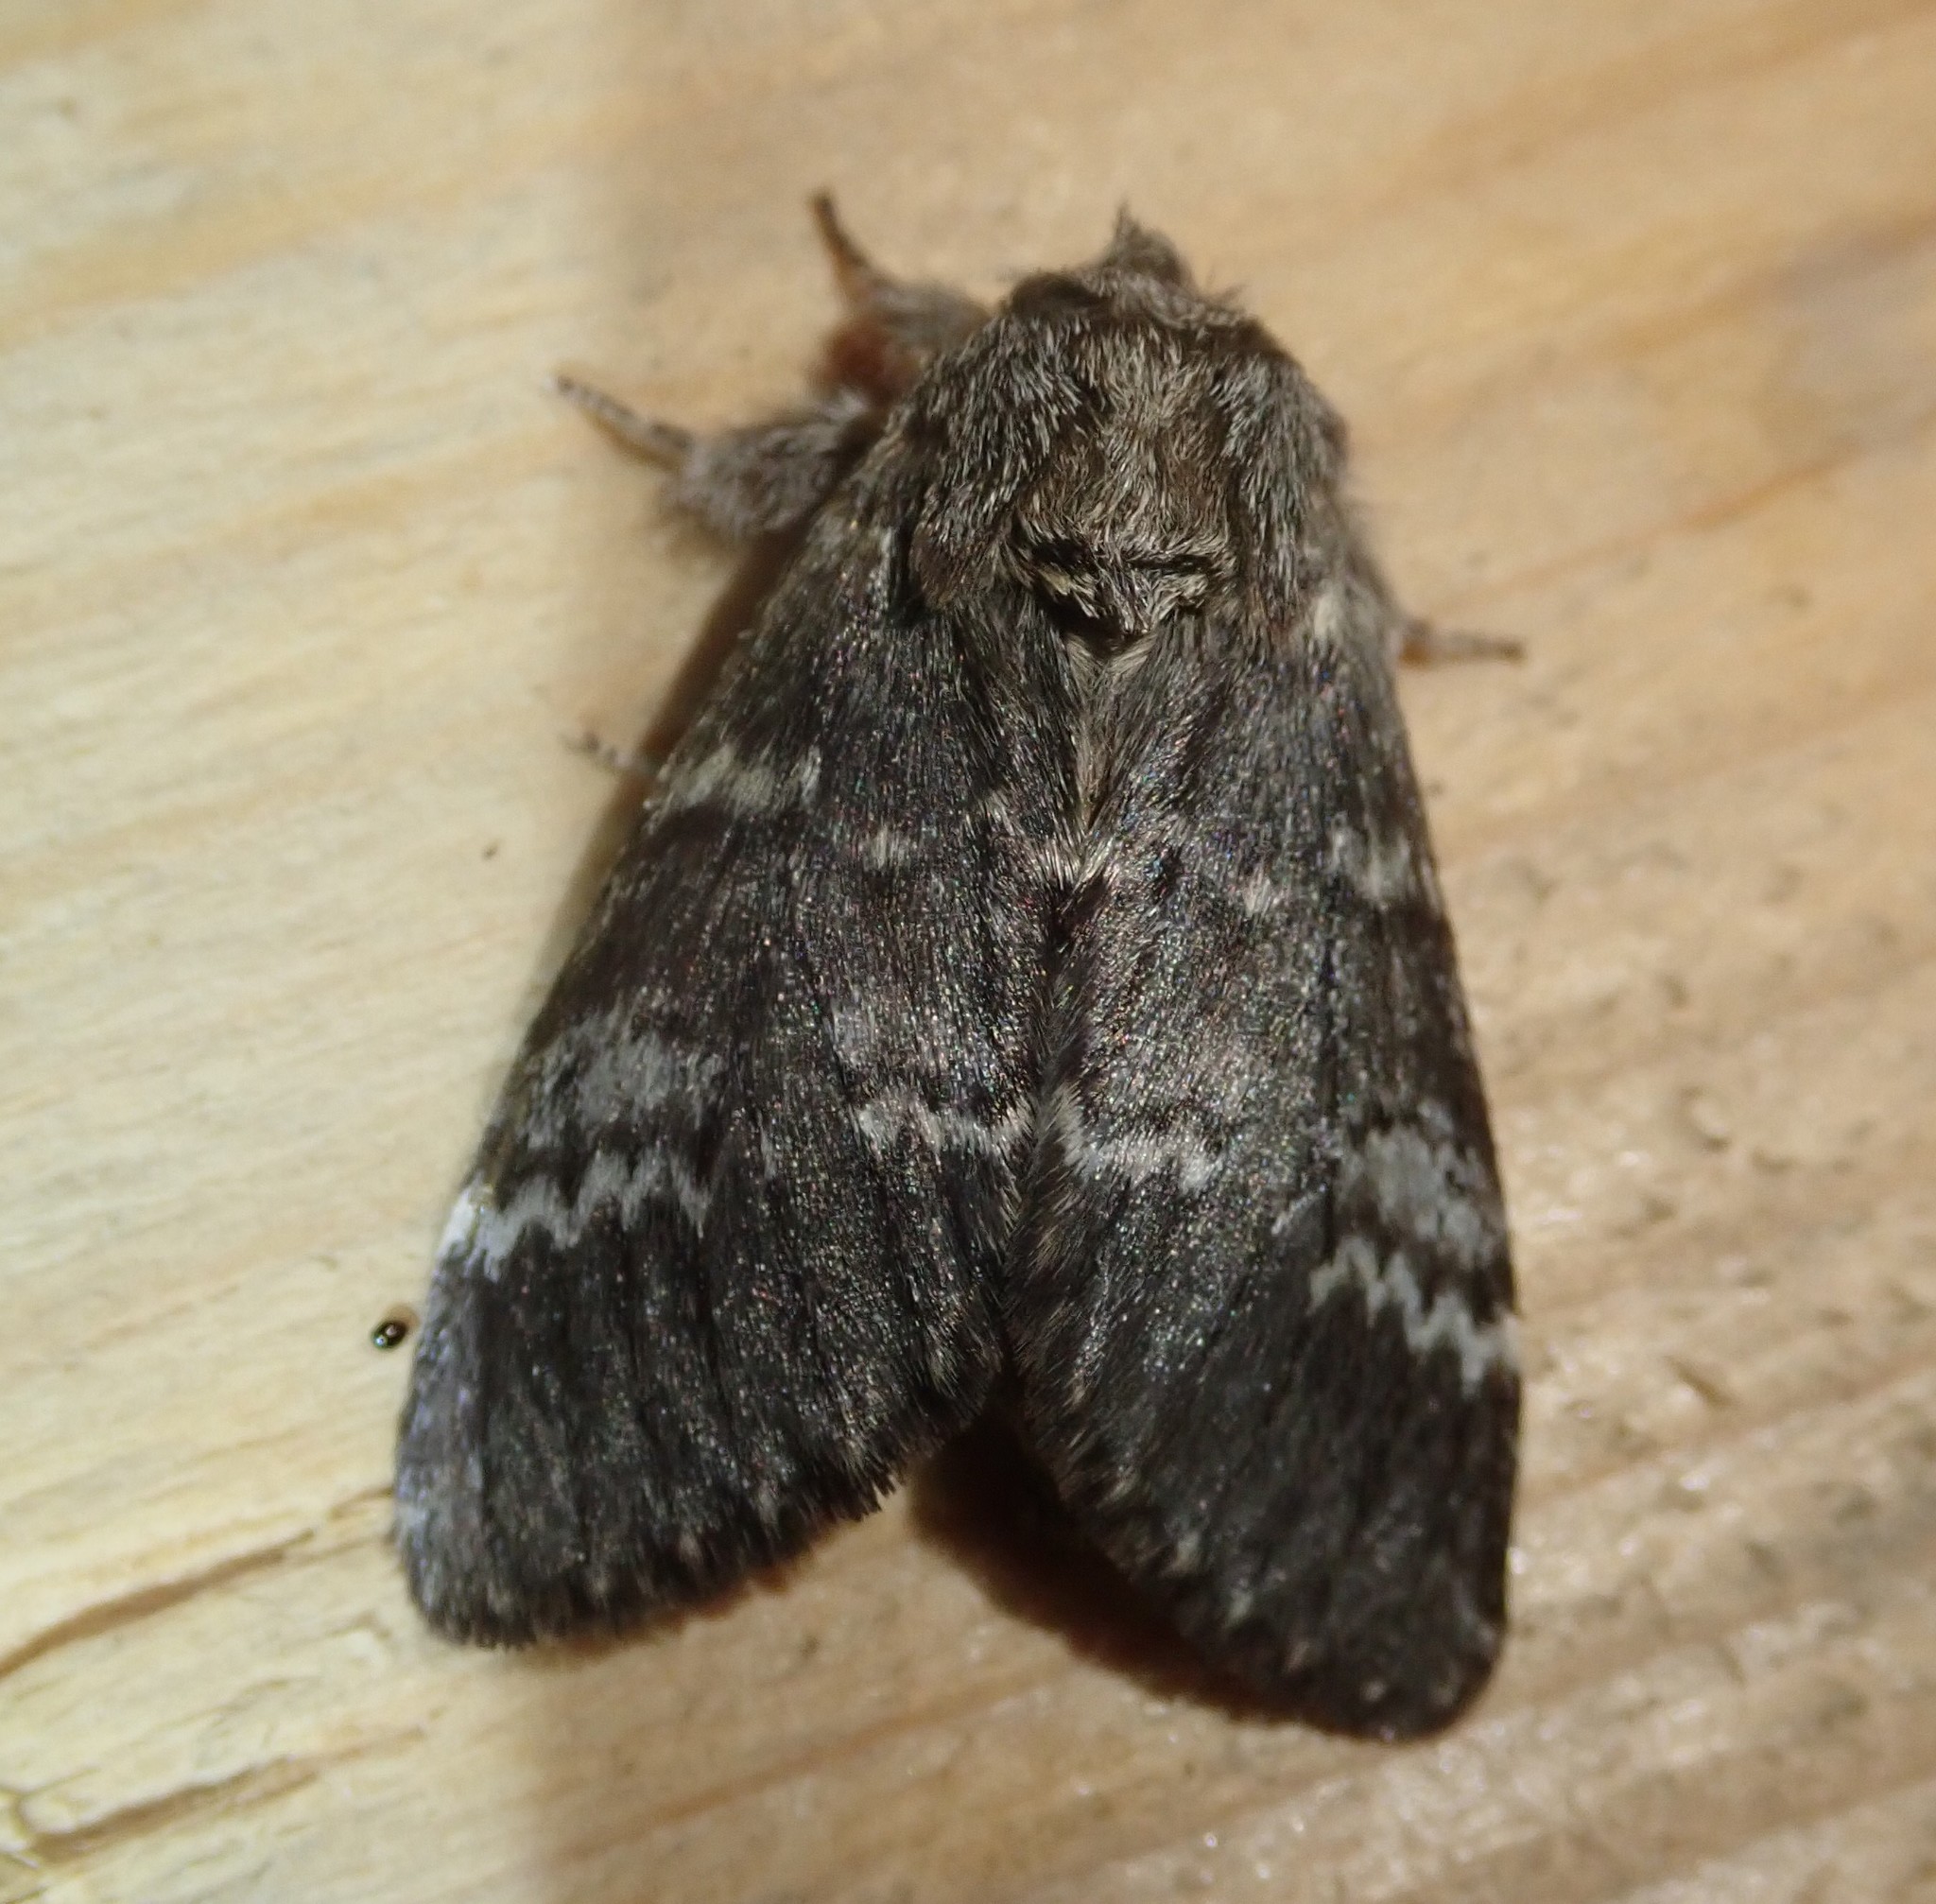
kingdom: Animalia
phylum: Arthropoda
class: Insecta
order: Lepidoptera
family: Notodontidae
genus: Drymonia
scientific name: Drymonia ruficornis
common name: Lunar marbled brown
